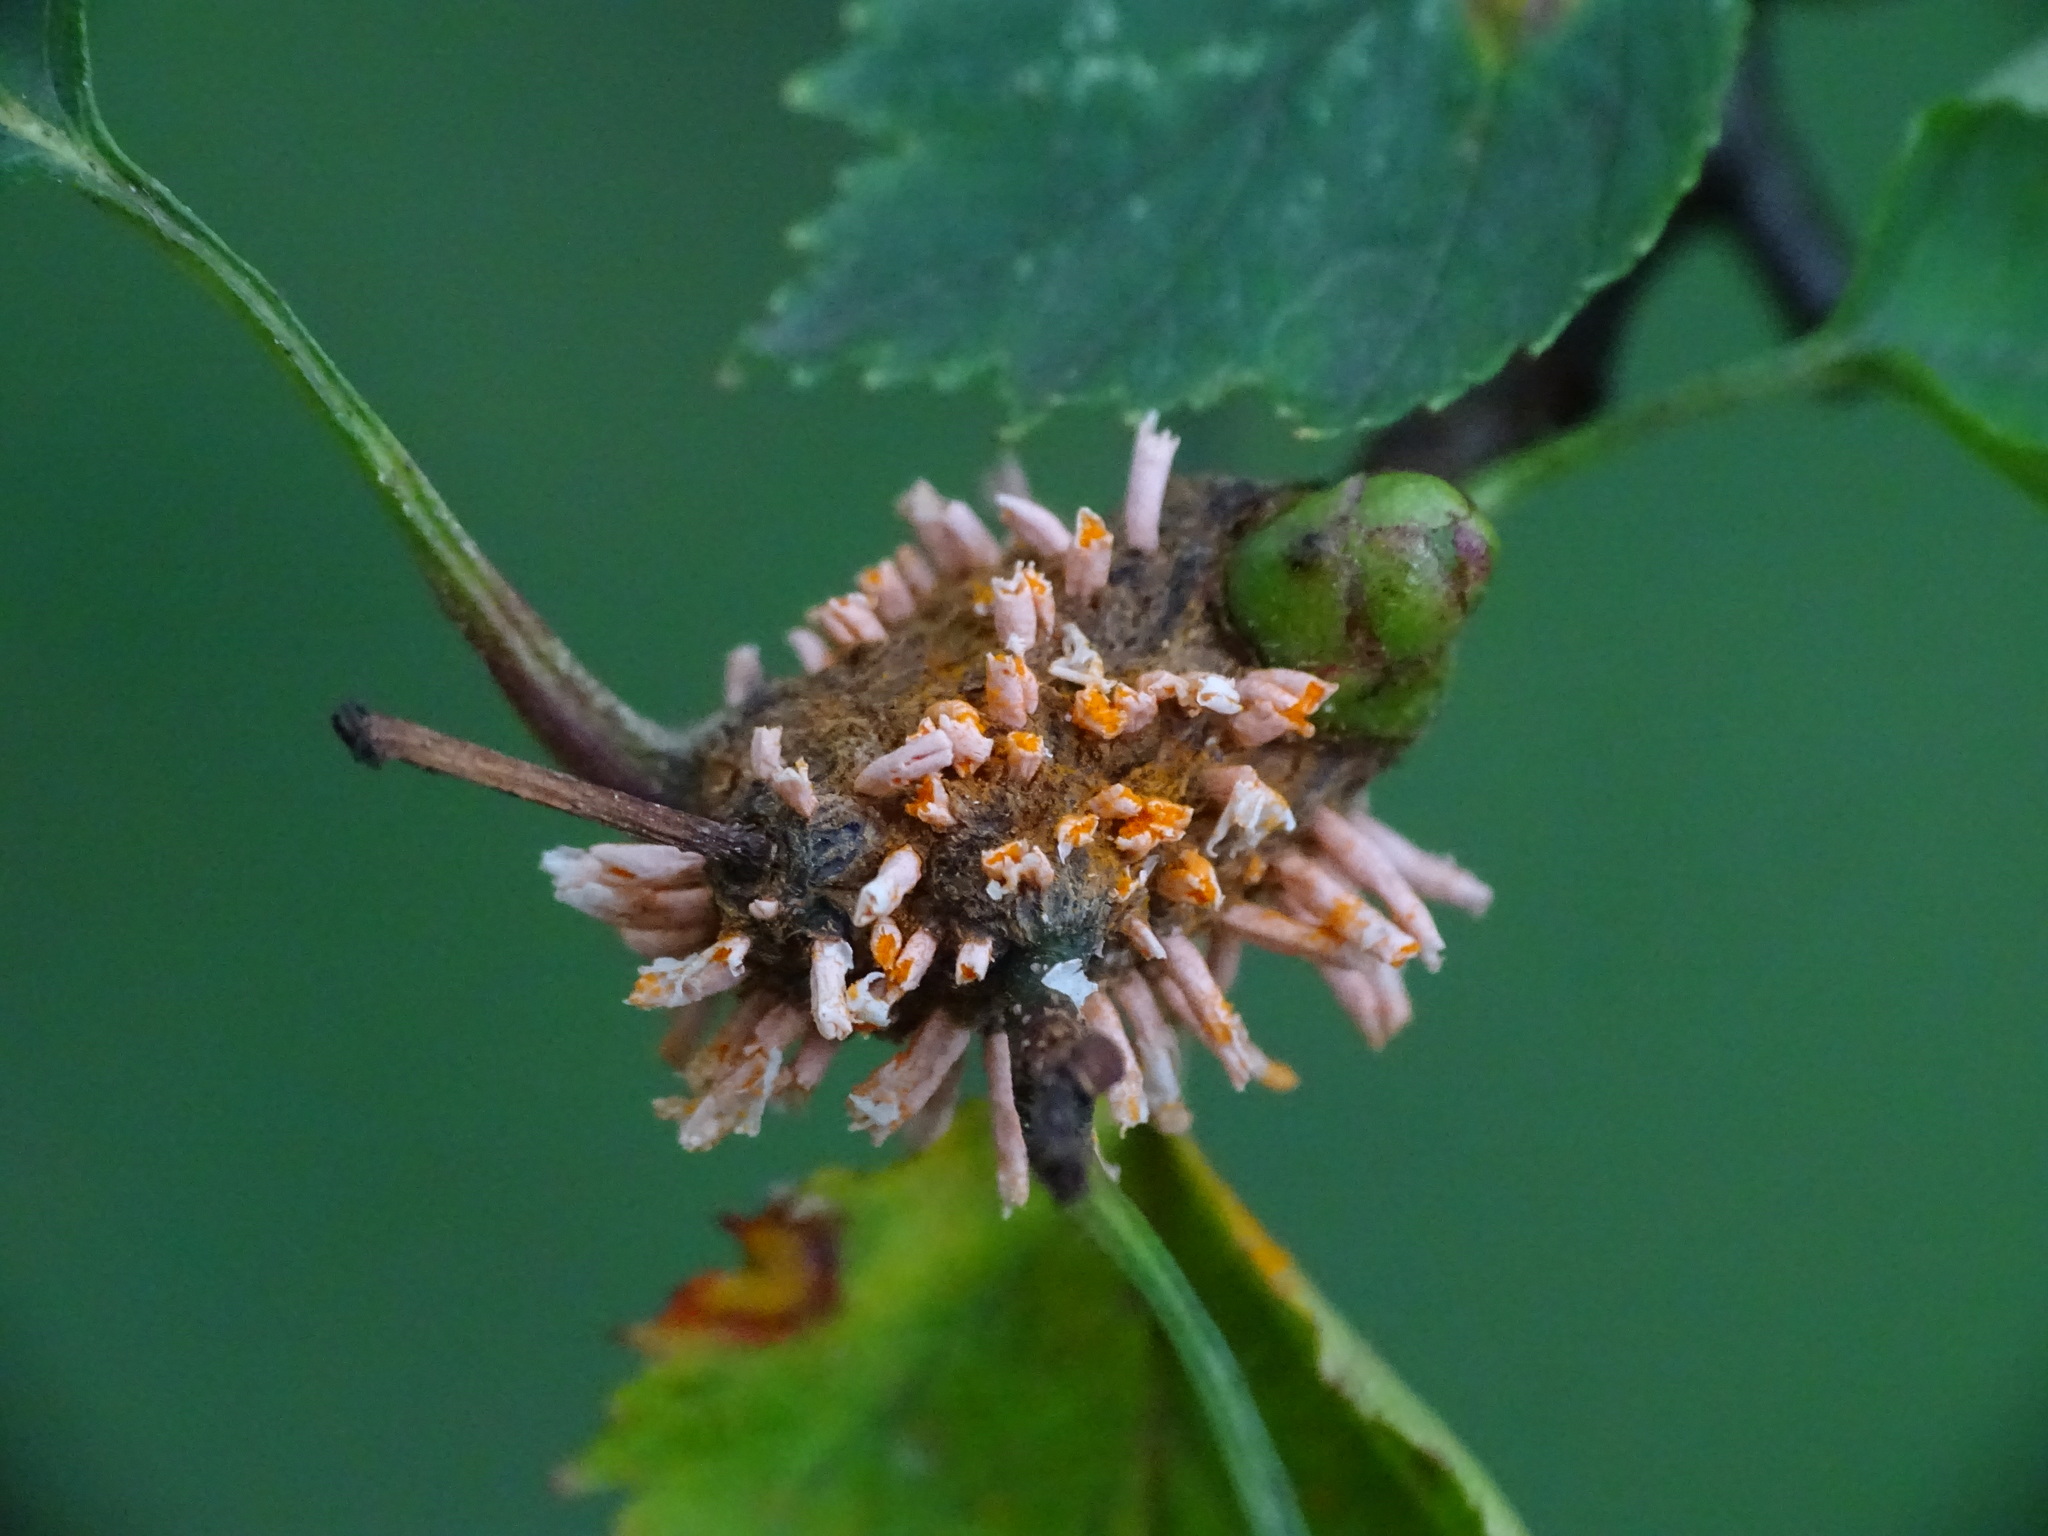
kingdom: Fungi
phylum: Basidiomycota
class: Pucciniomycetes
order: Pucciniales
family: Gymnosporangiaceae
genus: Gymnosporangium
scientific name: Gymnosporangium globosum
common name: Juniper-hawthorn rust
